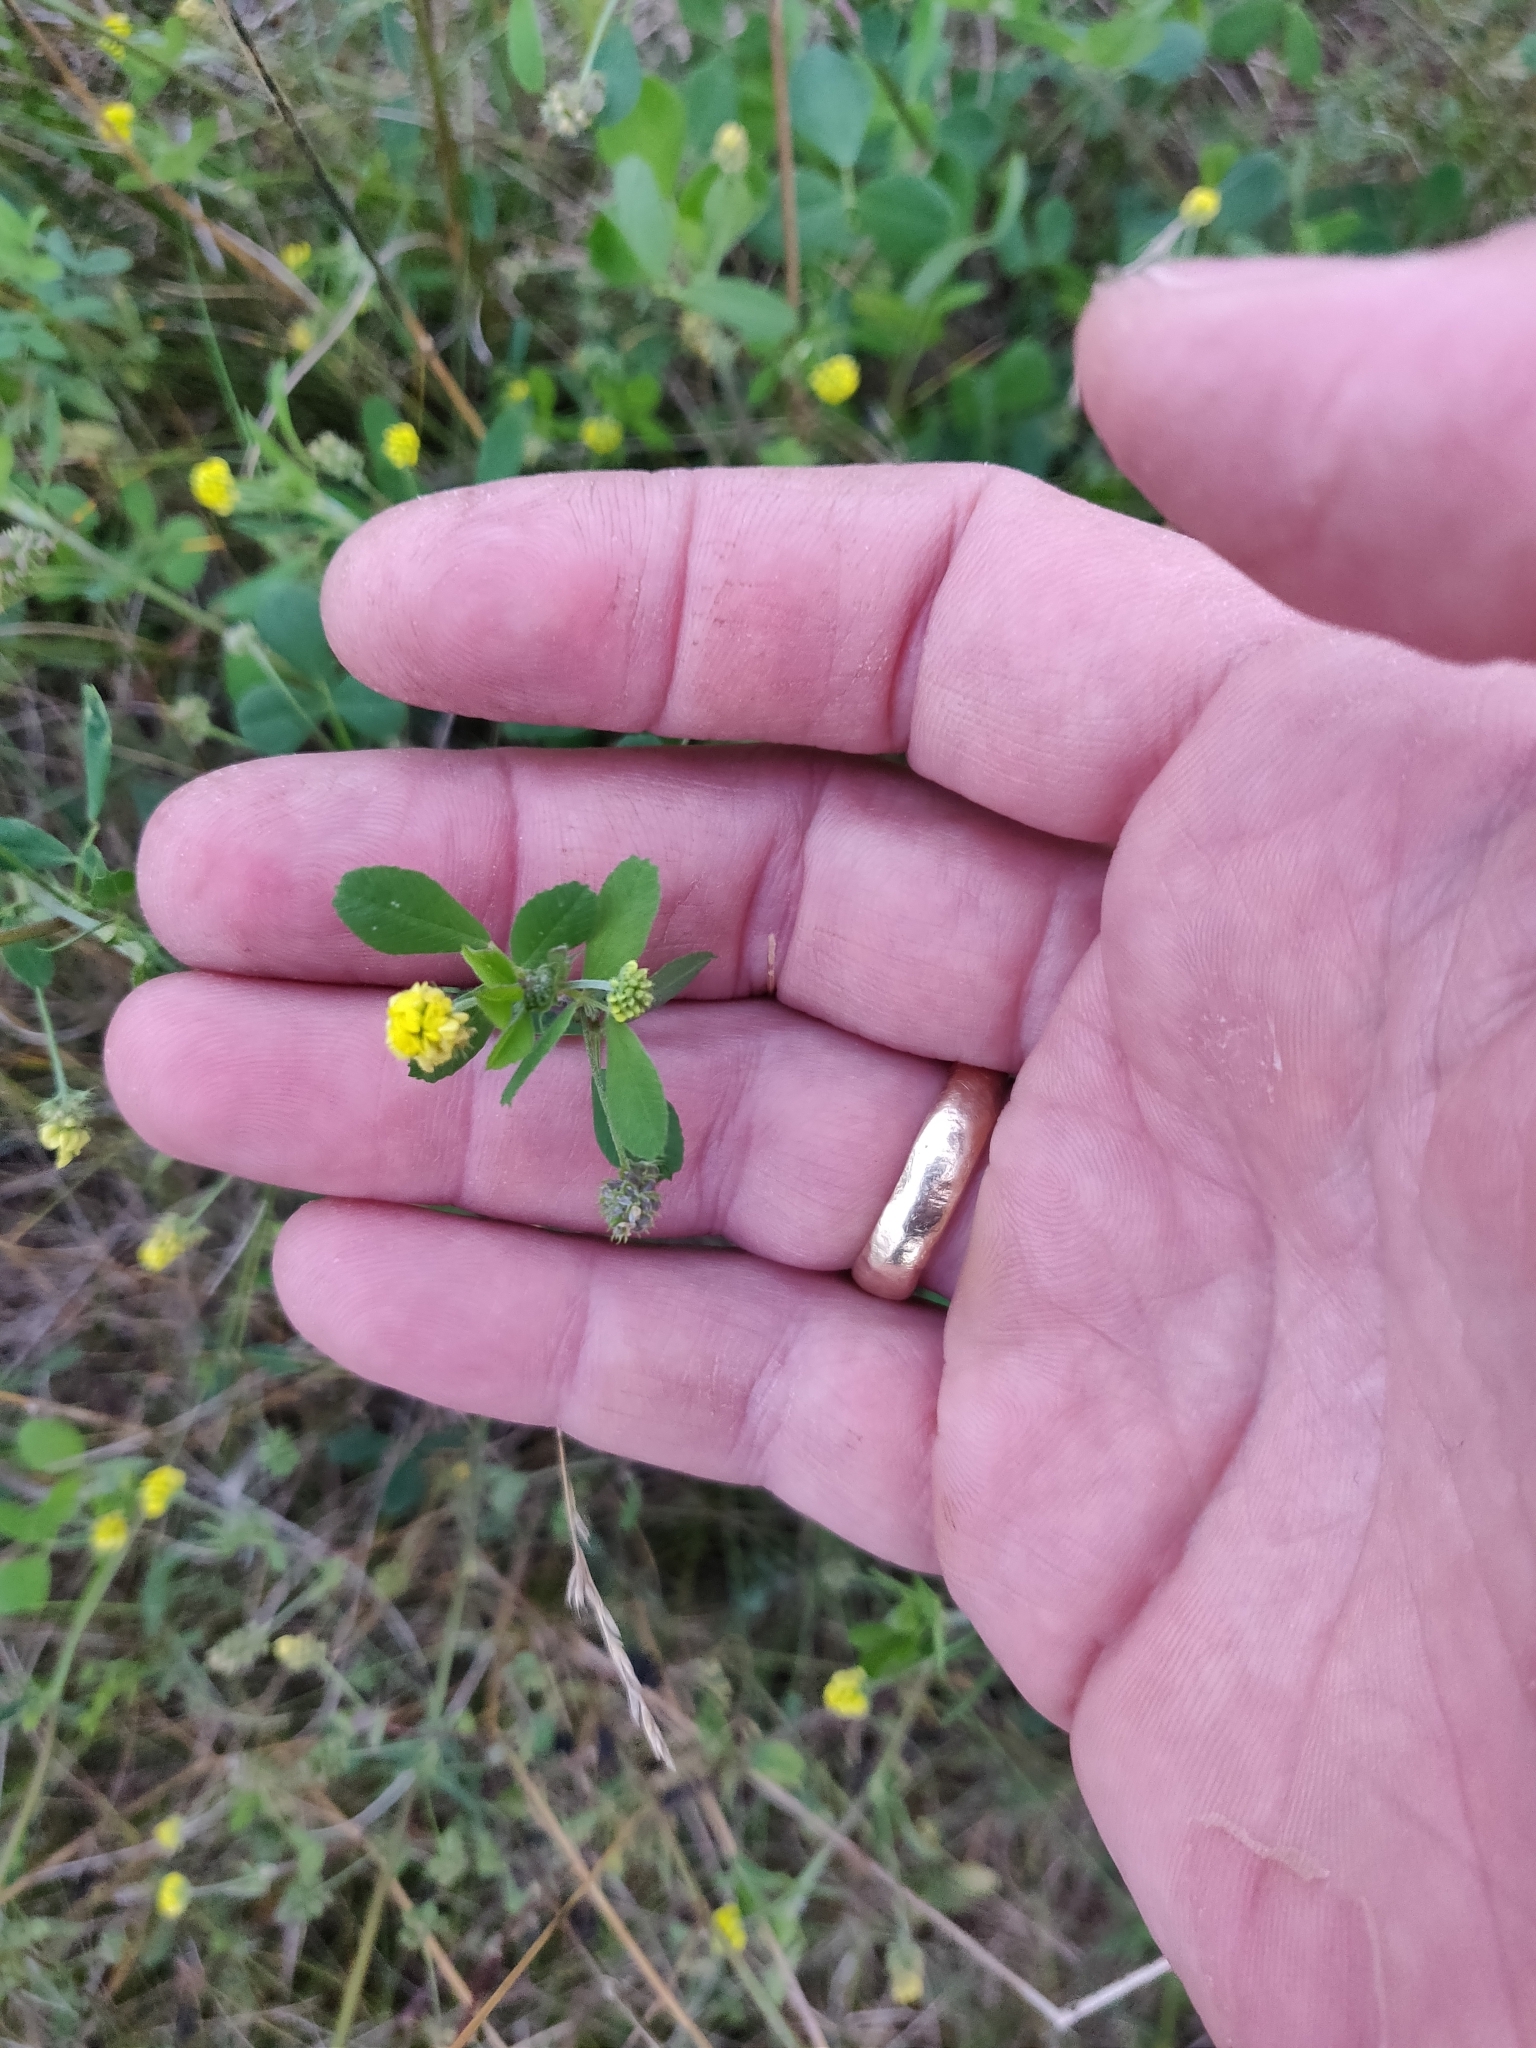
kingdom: Plantae
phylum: Tracheophyta
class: Magnoliopsida
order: Fabales
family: Fabaceae
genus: Medicago
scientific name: Medicago lupulina
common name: Black medick
